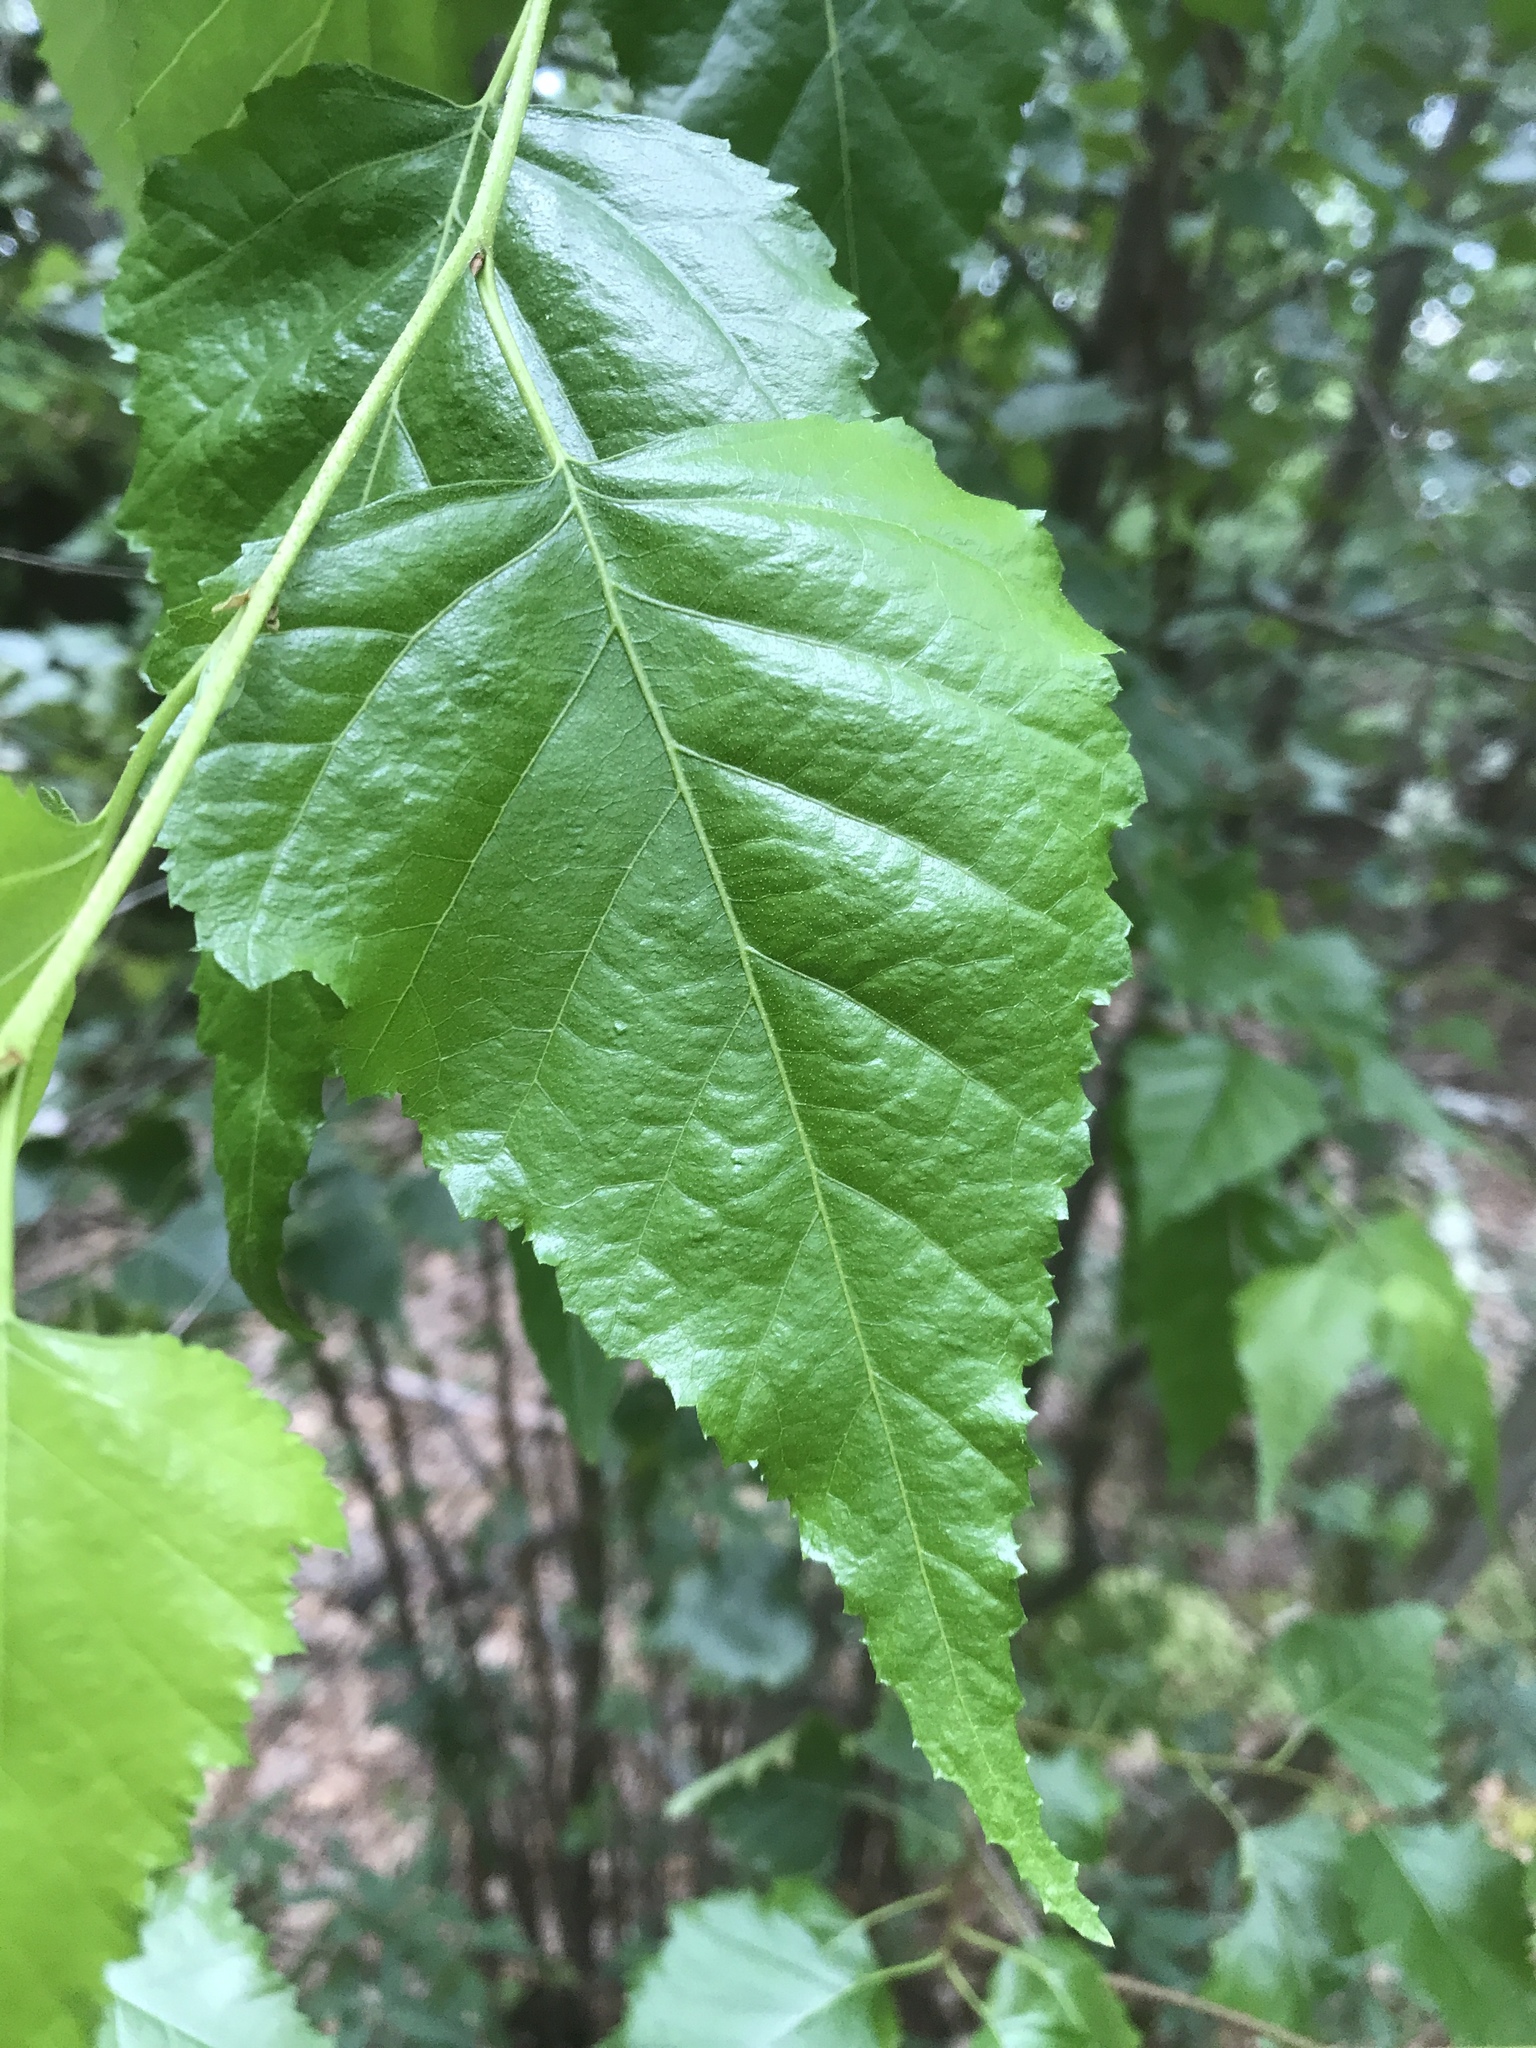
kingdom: Plantae
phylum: Tracheophyta
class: Magnoliopsida
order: Fagales
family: Betulaceae
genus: Betula
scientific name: Betula populifolia
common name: Fire birch
